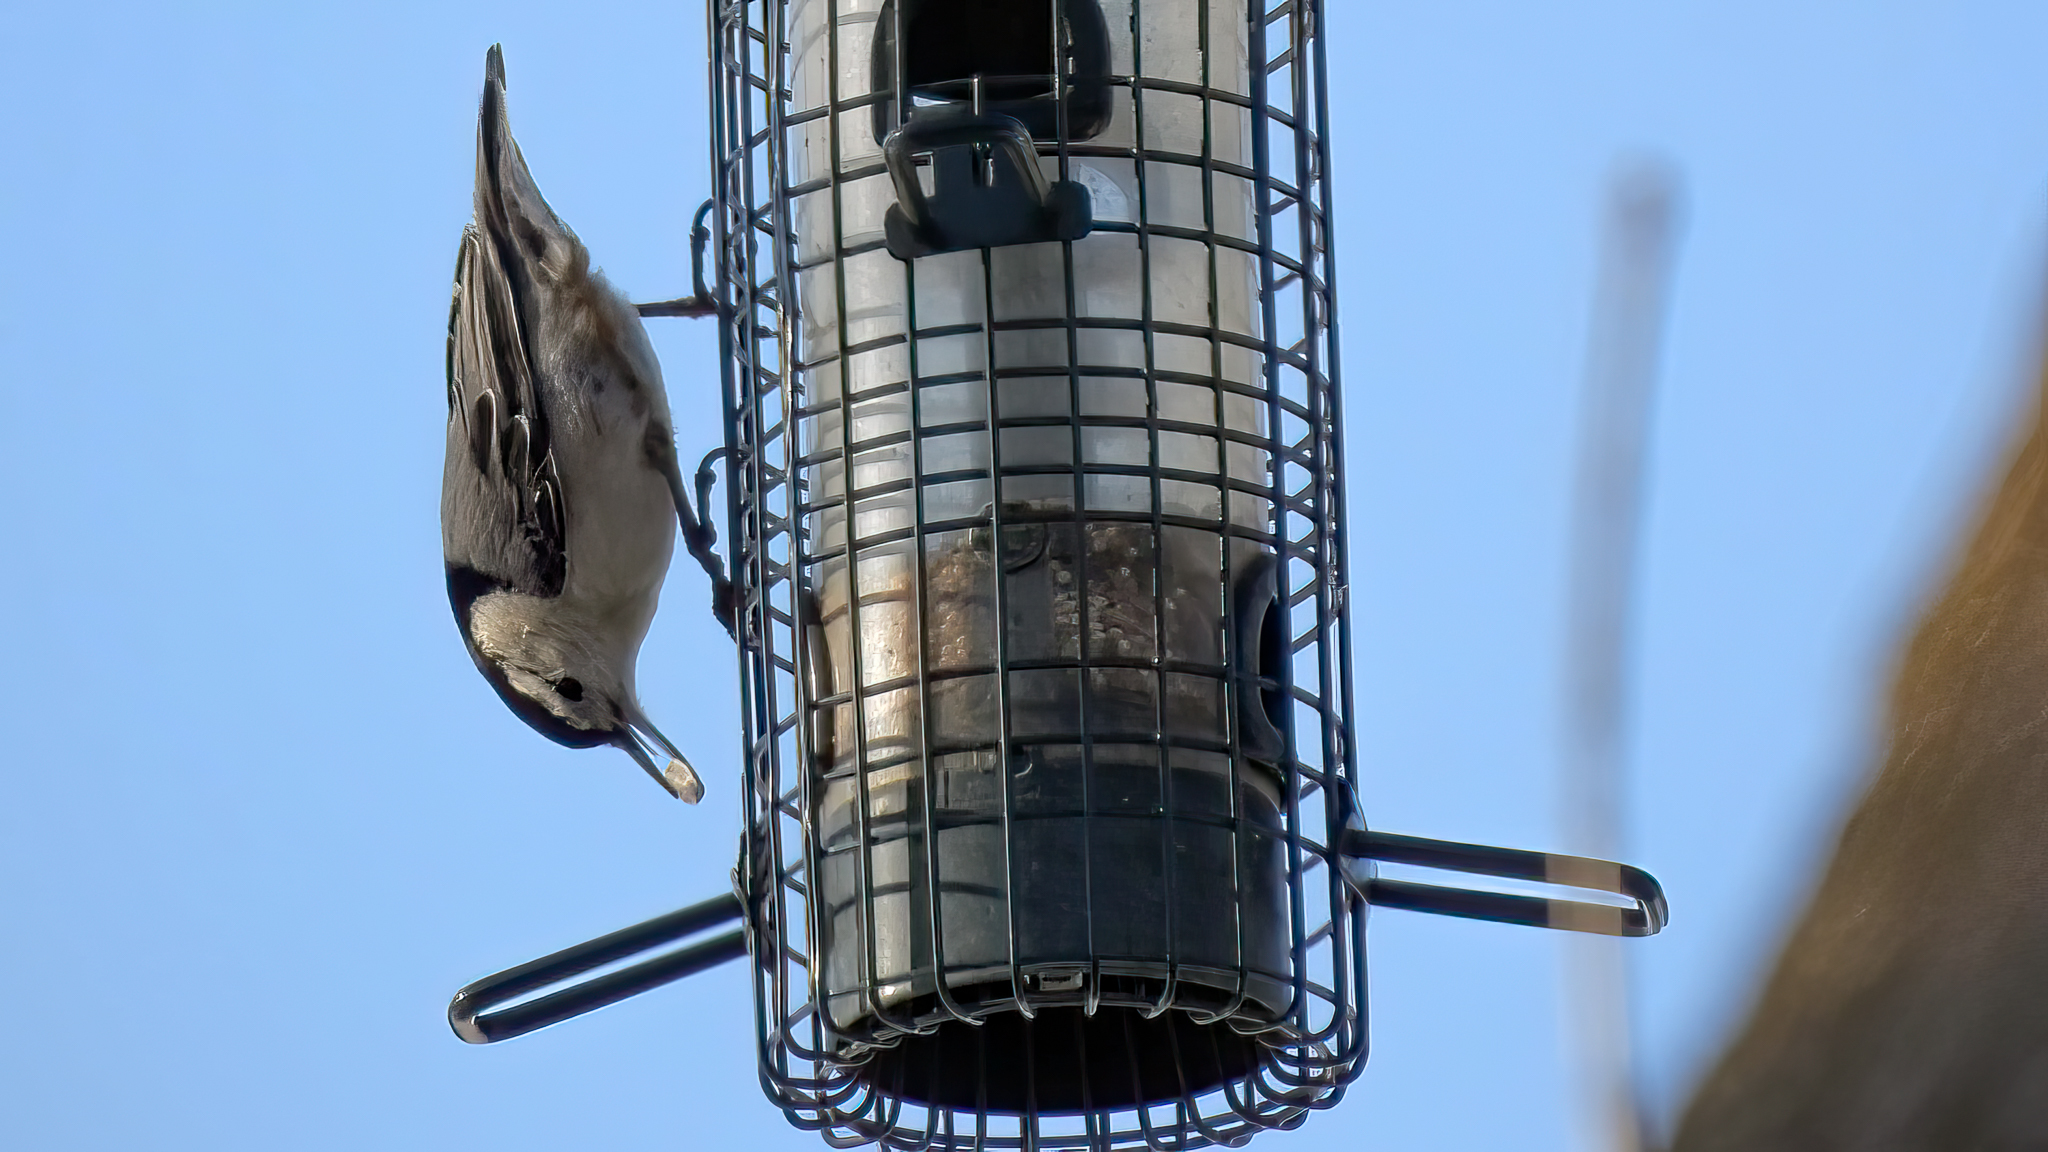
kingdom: Animalia
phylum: Chordata
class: Aves
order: Passeriformes
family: Sittidae
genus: Sitta
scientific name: Sitta carolinensis
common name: White-breasted nuthatch
